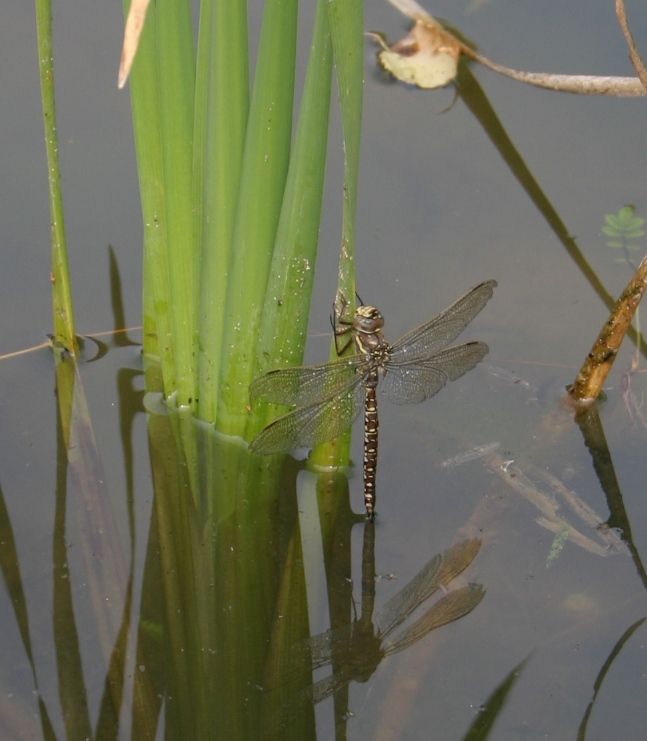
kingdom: Animalia
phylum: Arthropoda
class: Insecta
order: Odonata
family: Aeshnidae
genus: Aeshna
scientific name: Aeshna juncea
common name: Moorland hawker
